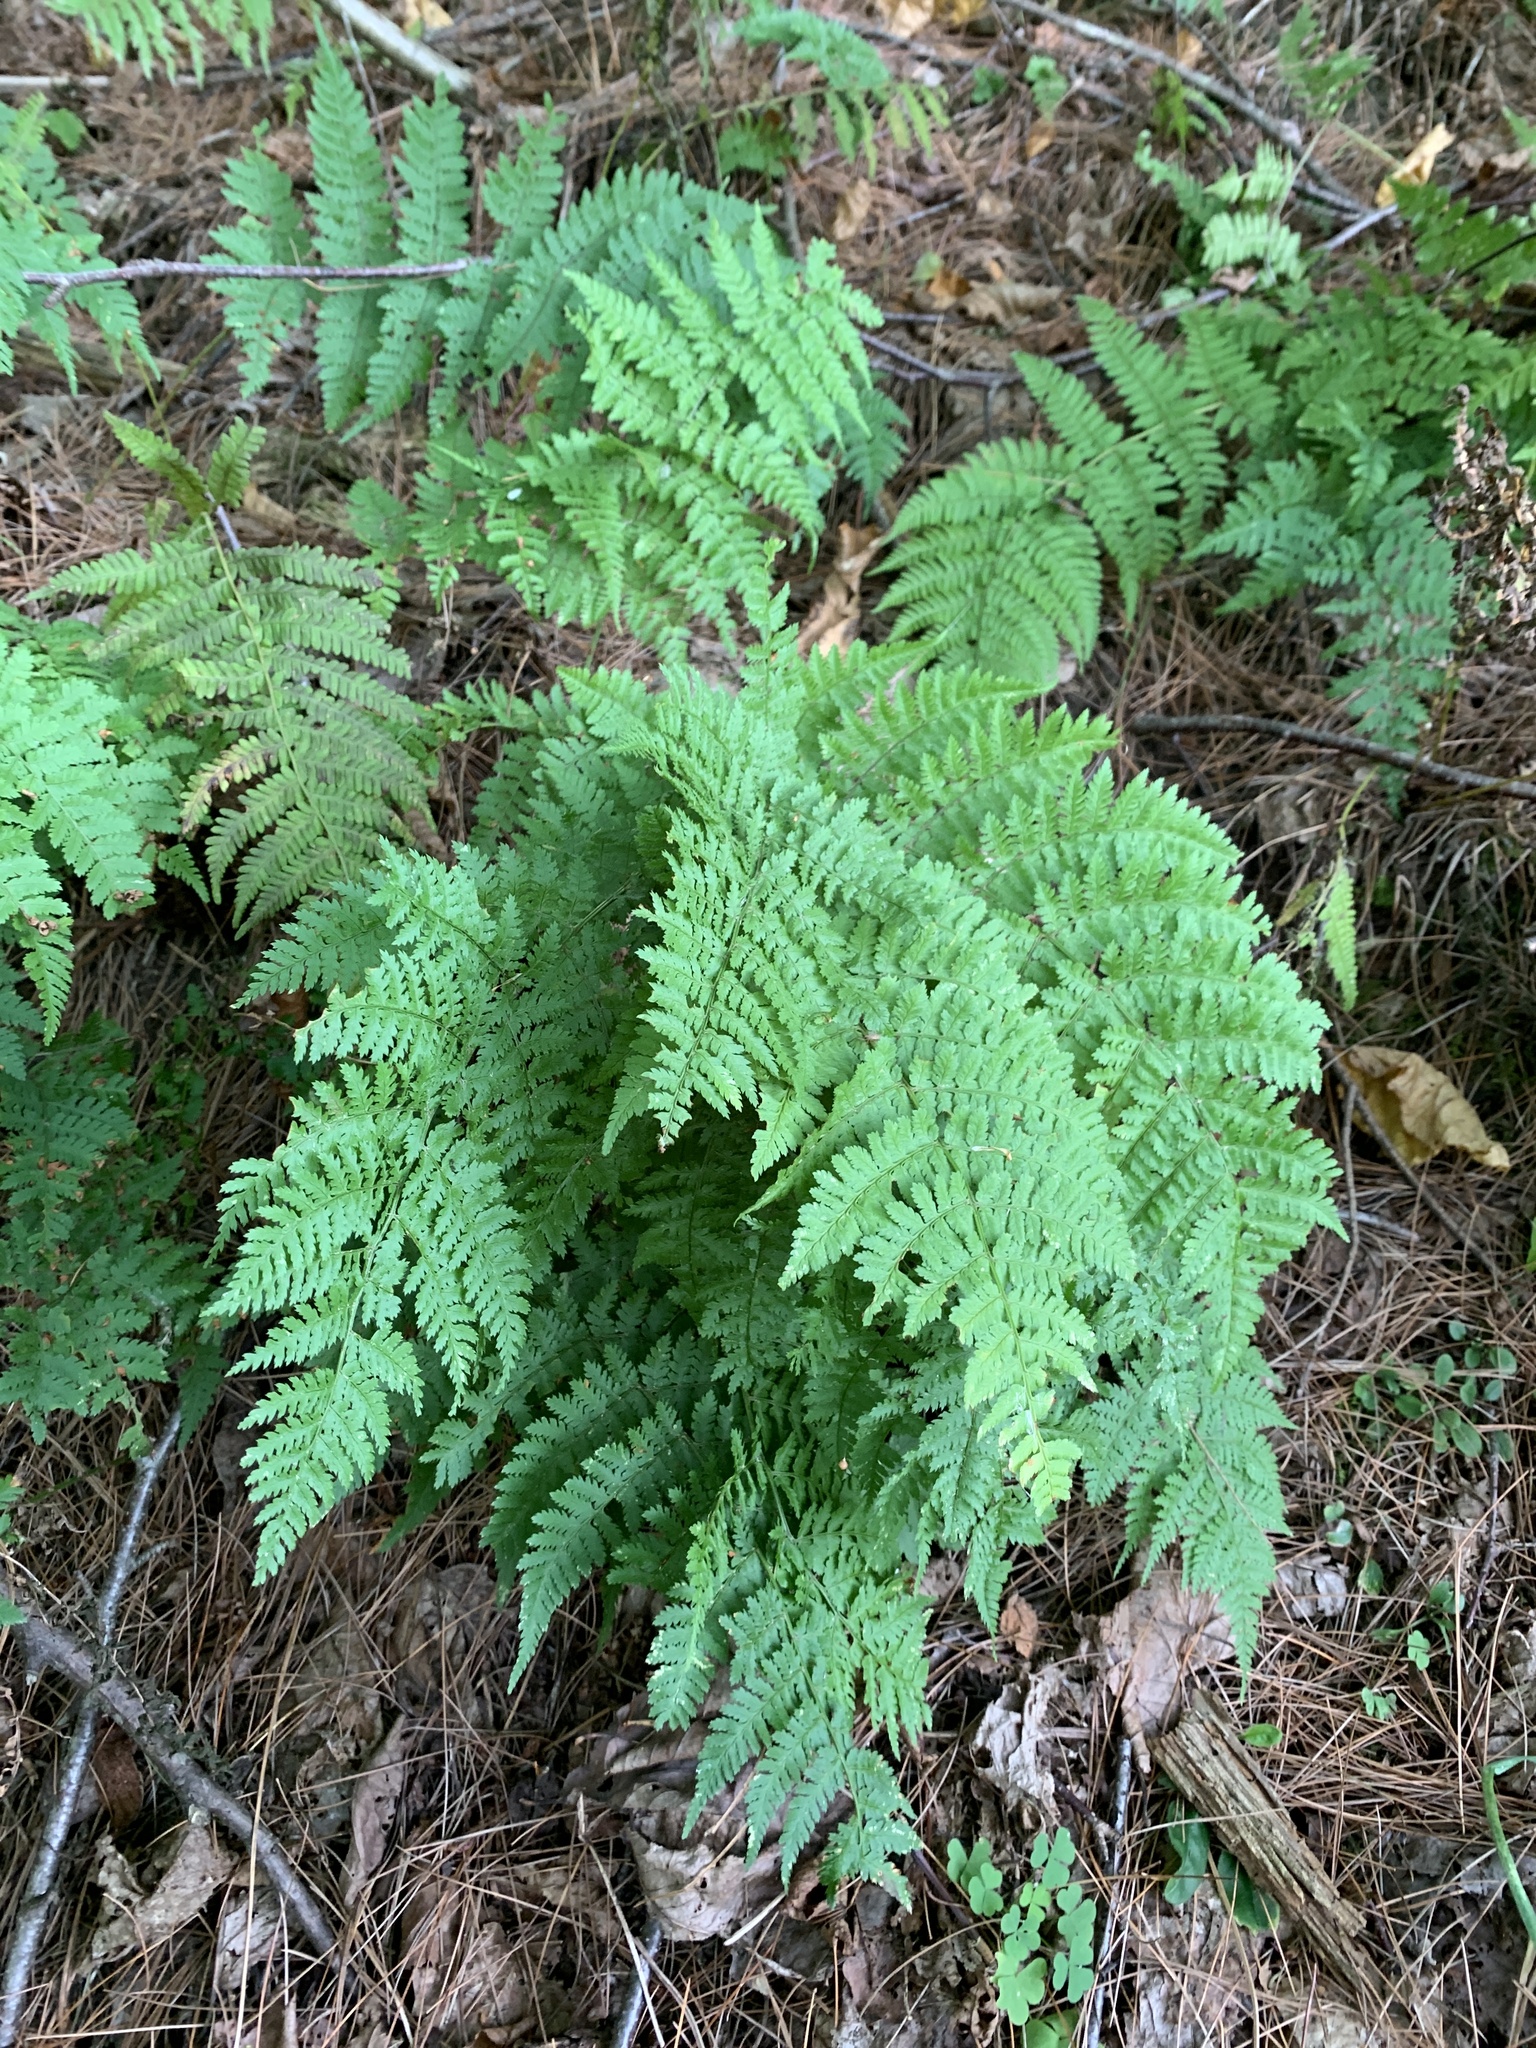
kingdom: Plantae
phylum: Tracheophyta
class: Polypodiopsida
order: Polypodiales
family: Dryopteridaceae
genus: Dryopteris
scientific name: Dryopteris intermedia
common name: Evergreen wood fern
